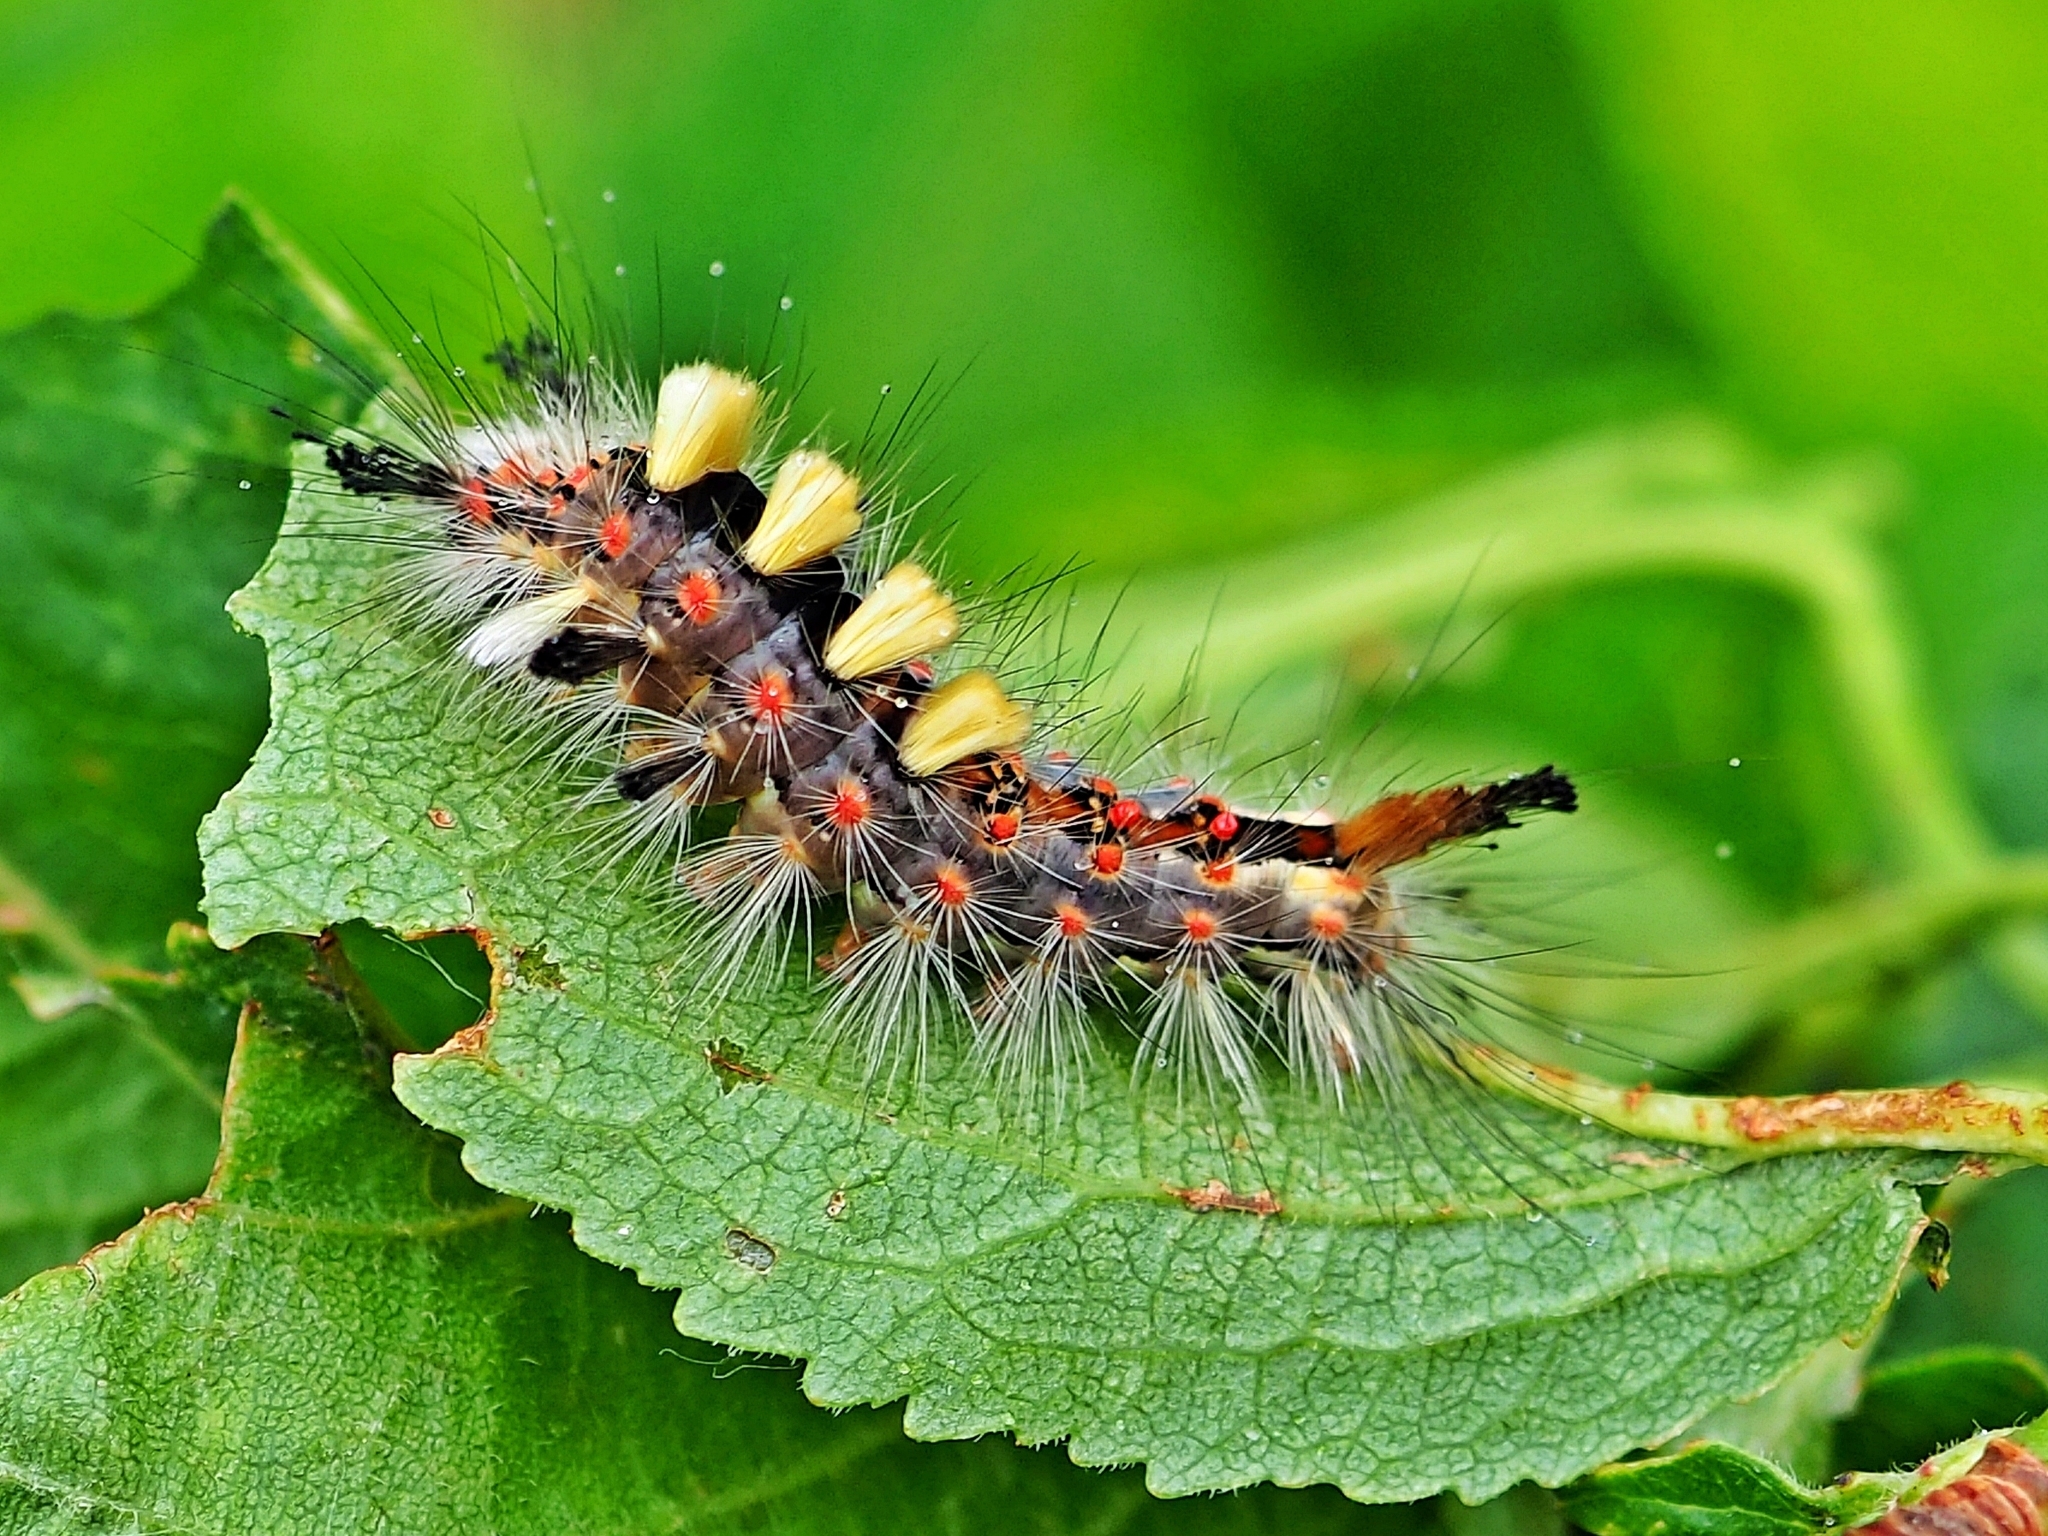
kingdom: Animalia
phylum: Arthropoda
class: Insecta
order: Lepidoptera
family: Erebidae
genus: Orgyia
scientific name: Orgyia antiqua
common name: Vapourer
